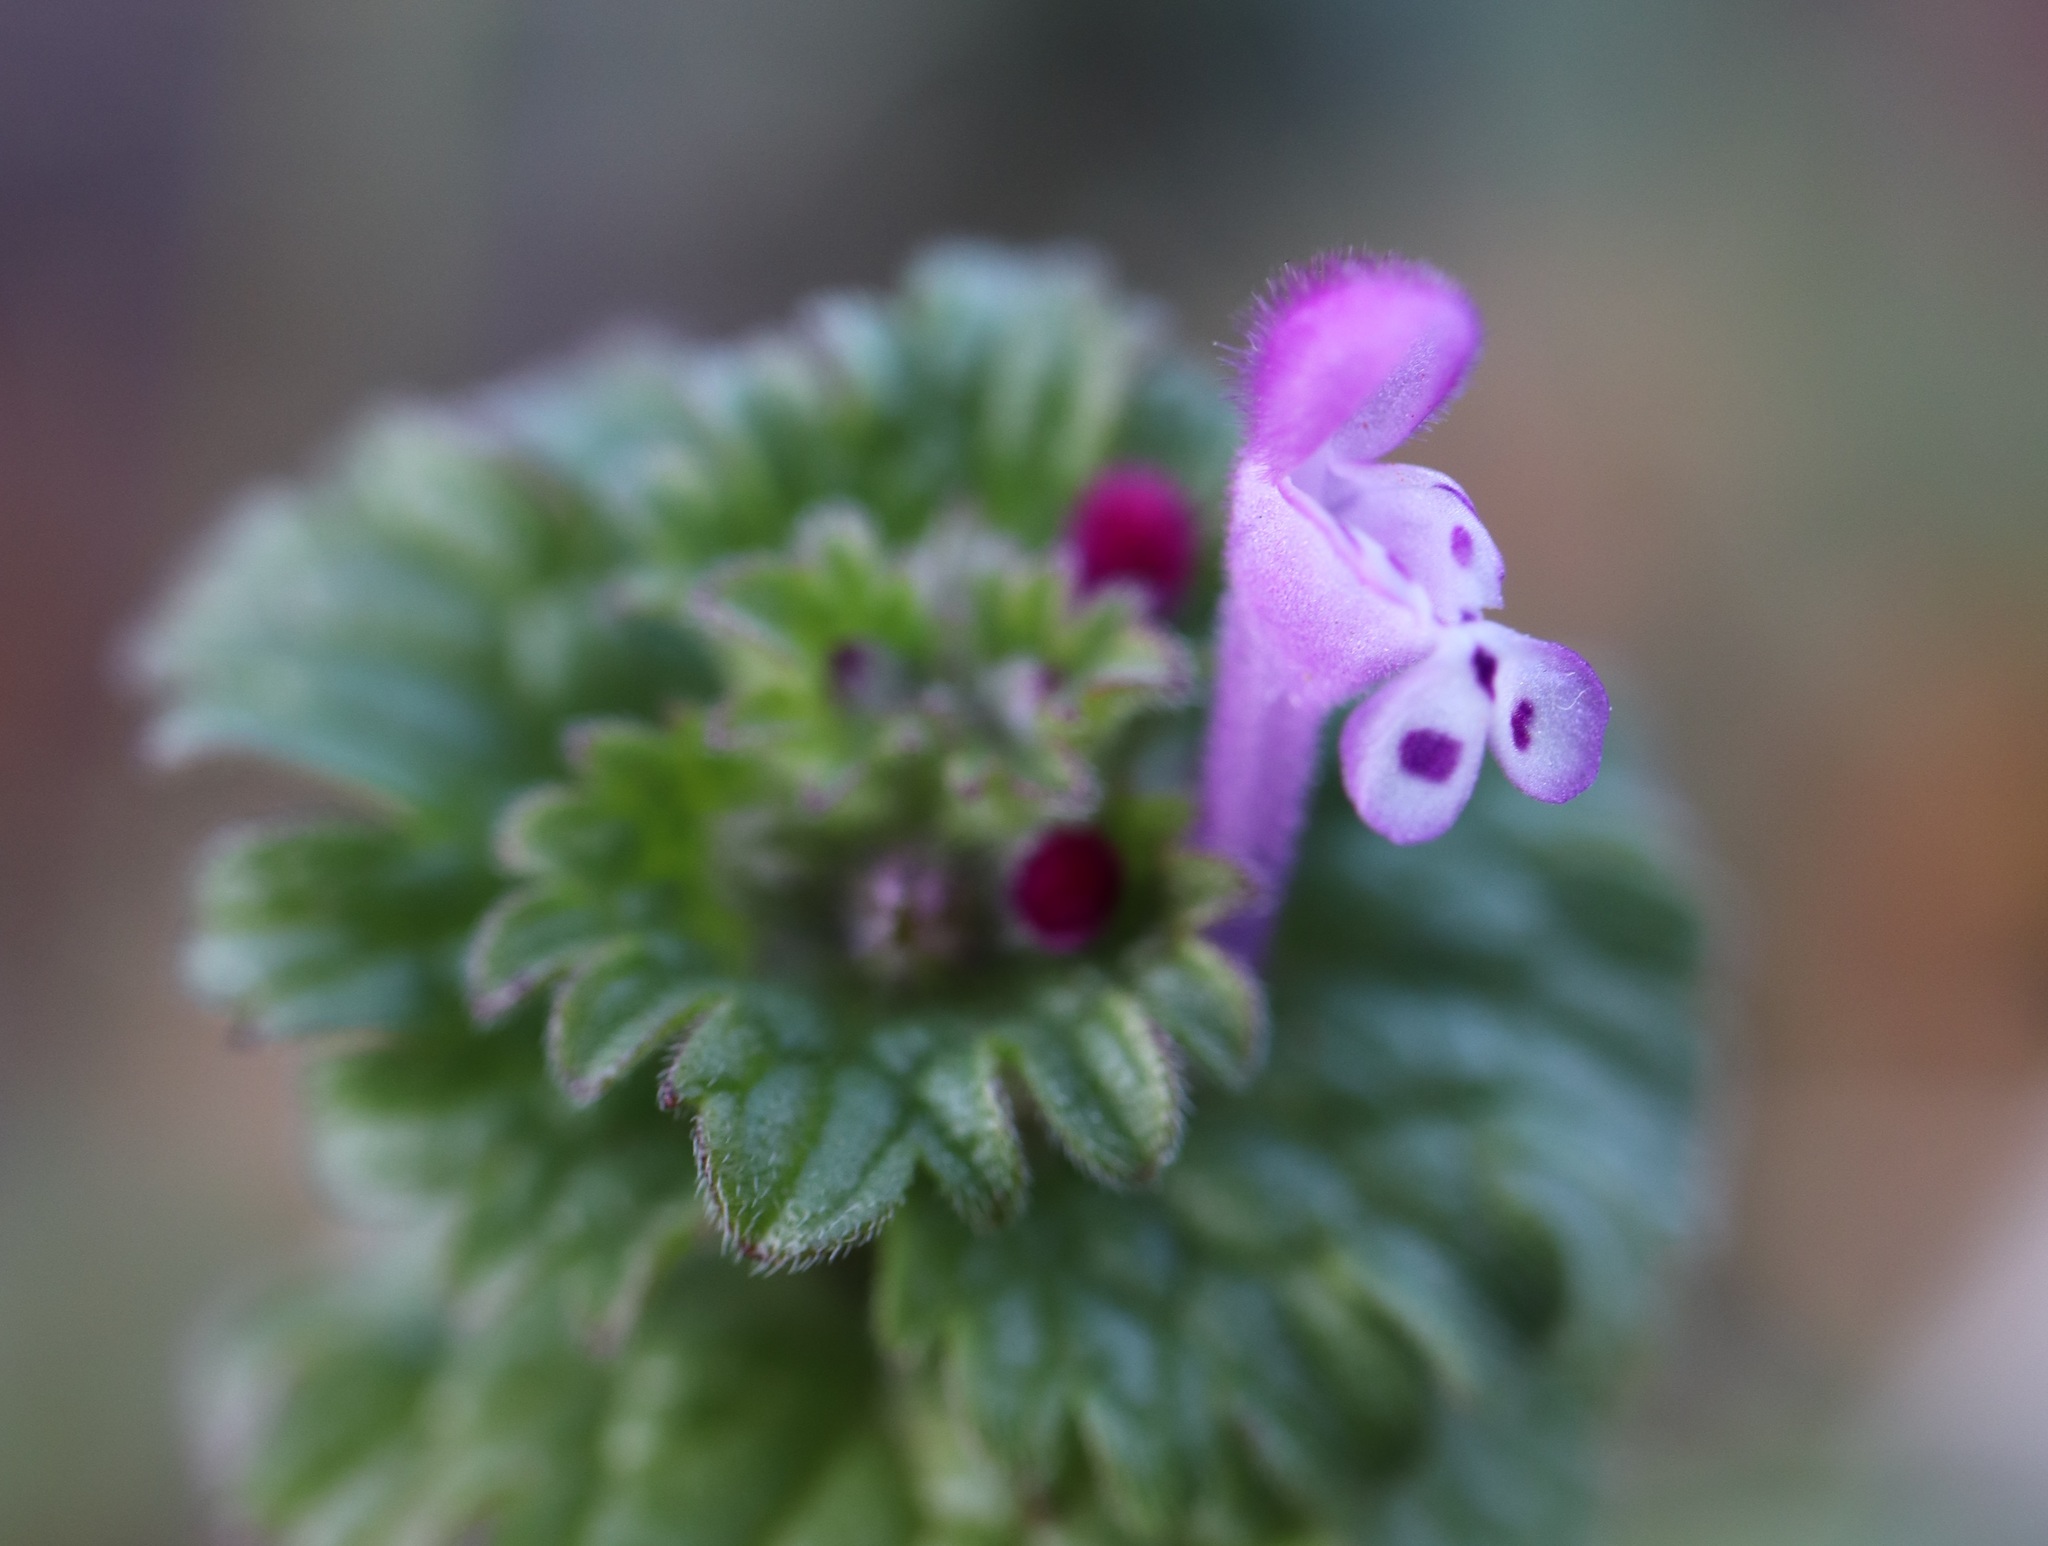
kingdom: Plantae
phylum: Tracheophyta
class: Magnoliopsida
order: Lamiales
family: Lamiaceae
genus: Lamium
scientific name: Lamium amplexicaule
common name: Henbit dead-nettle
